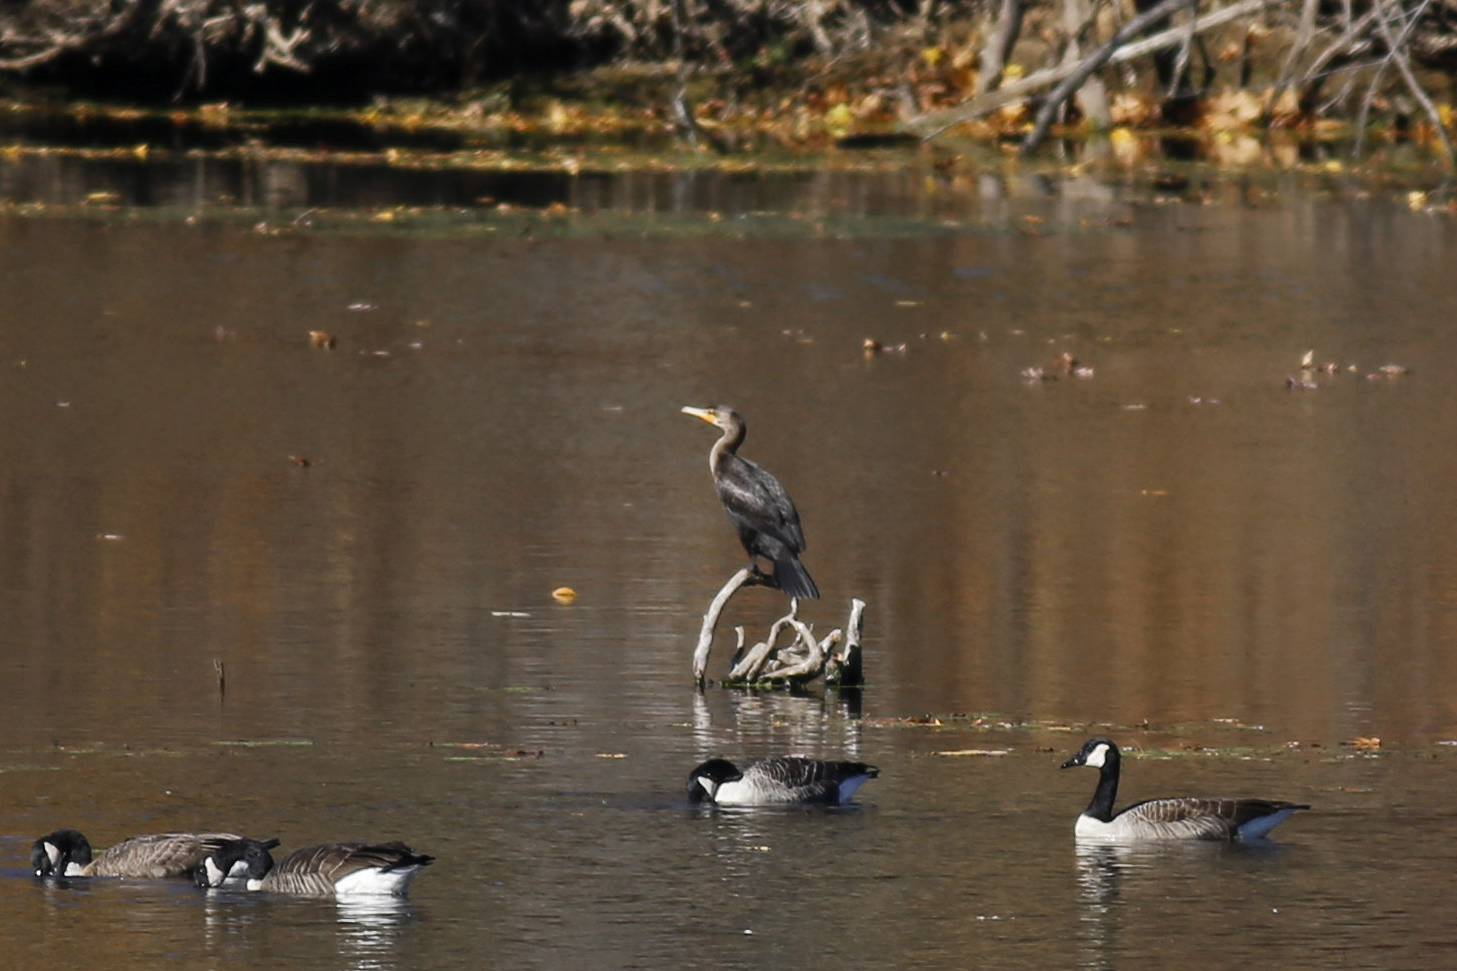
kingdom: Animalia
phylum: Chordata
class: Aves
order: Suliformes
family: Phalacrocoracidae
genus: Phalacrocorax
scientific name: Phalacrocorax auritus
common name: Double-crested cormorant
